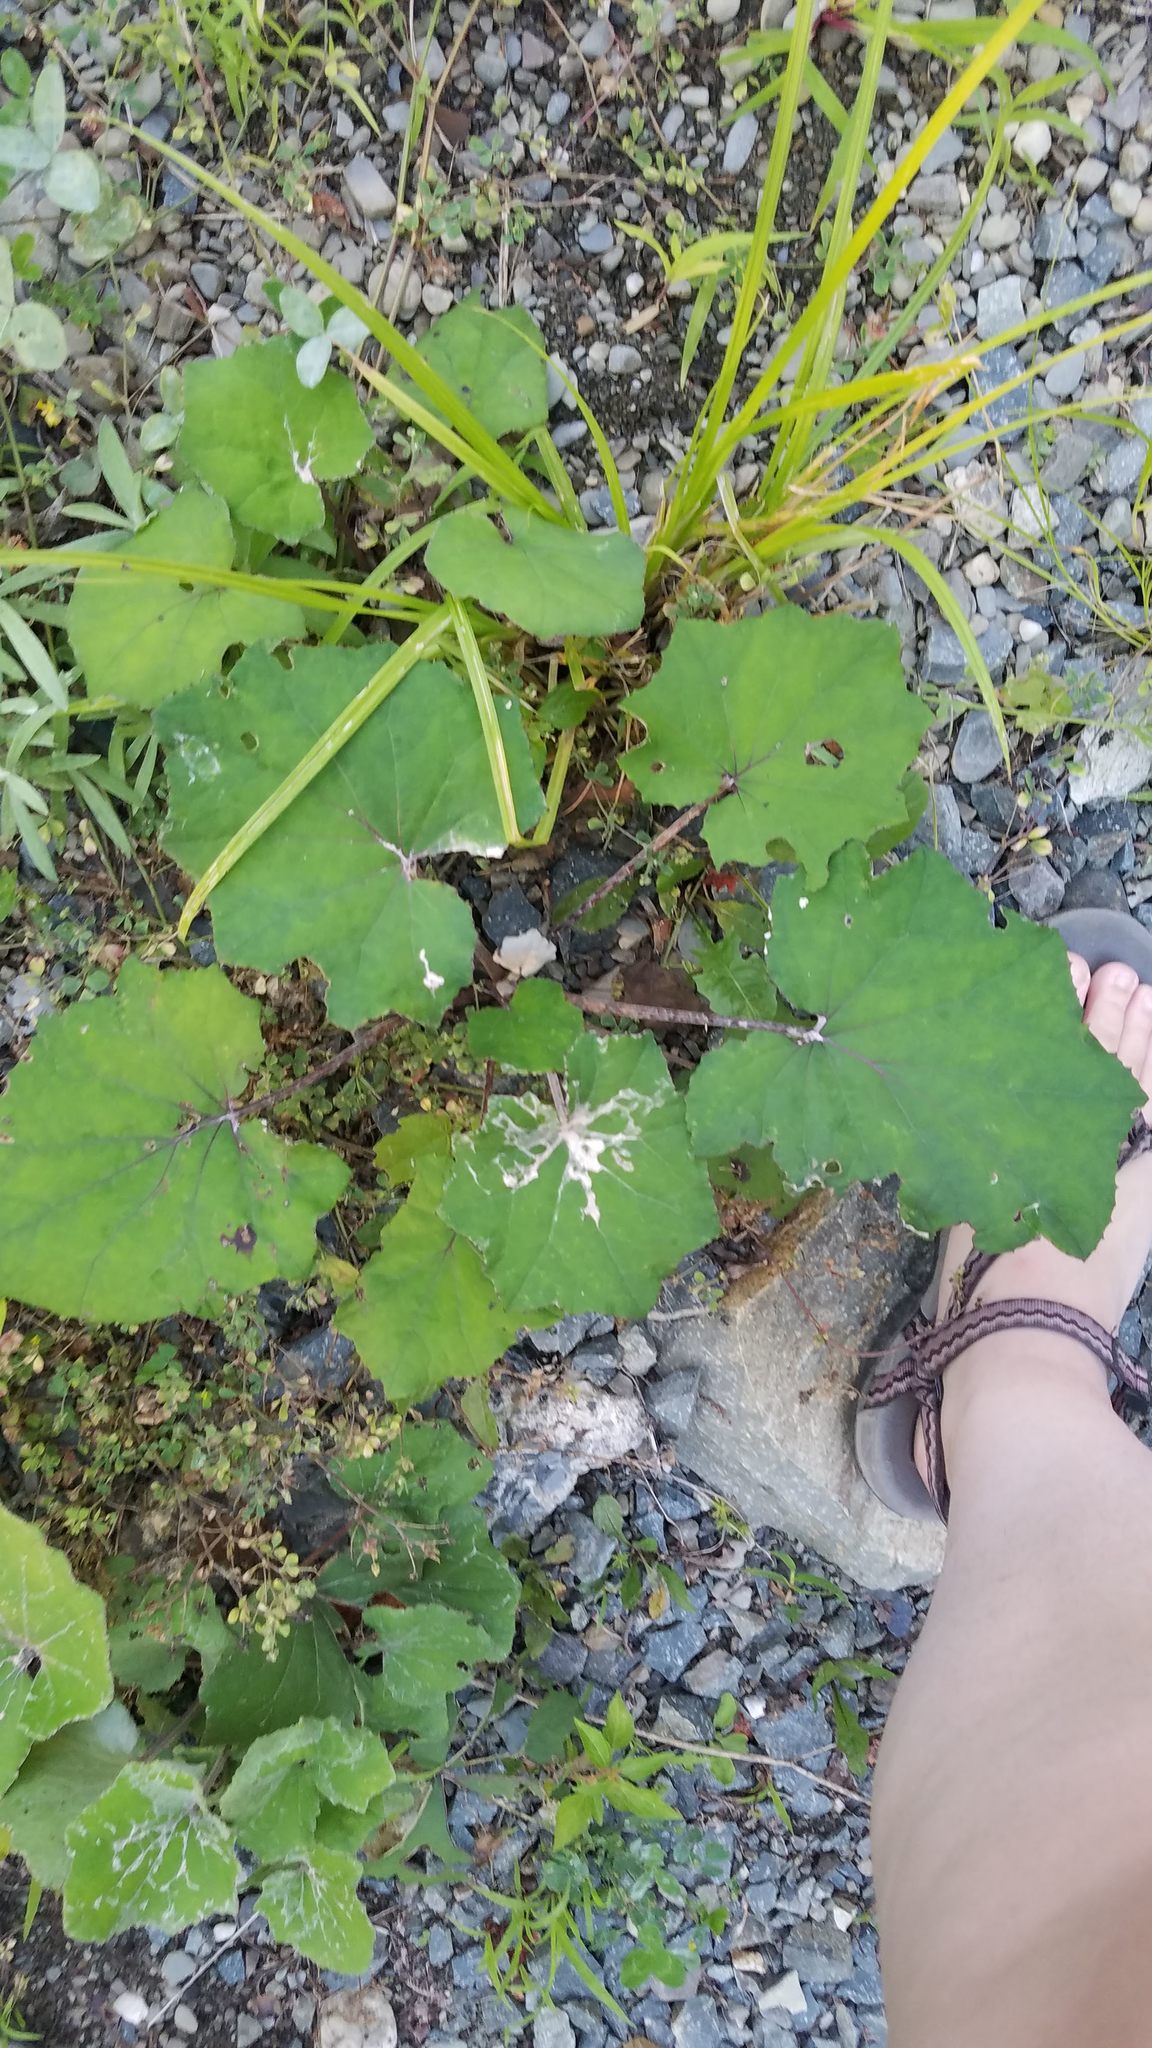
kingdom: Plantae
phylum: Tracheophyta
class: Magnoliopsida
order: Asterales
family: Asteraceae
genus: Tussilago
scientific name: Tussilago farfara
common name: Coltsfoot
